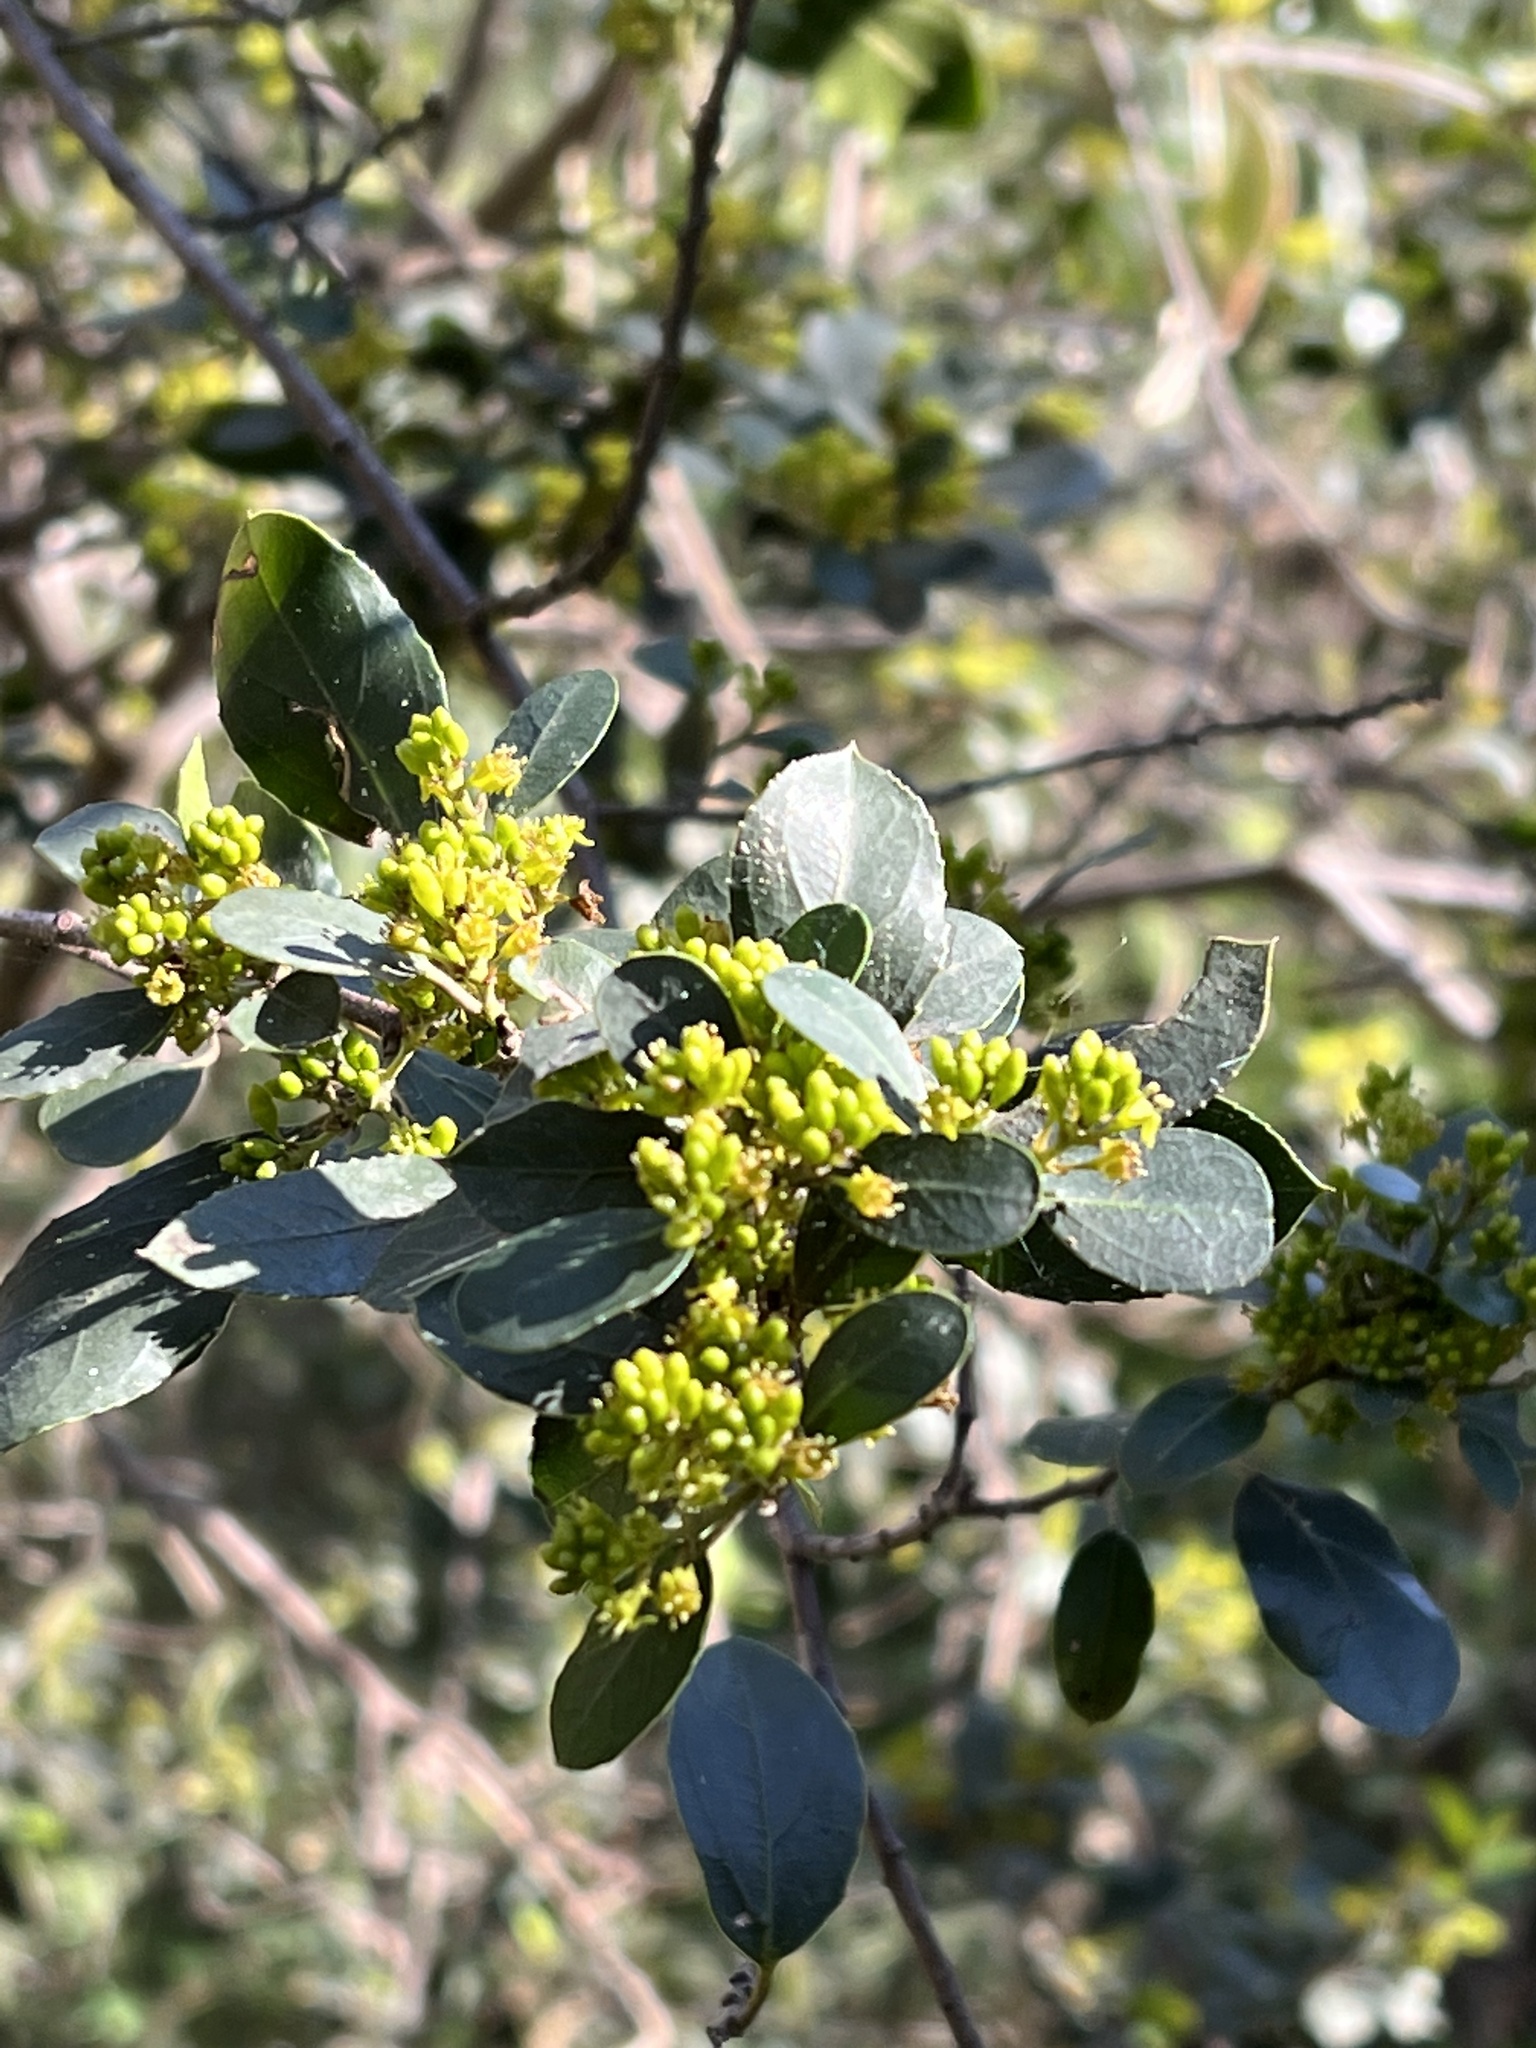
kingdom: Plantae
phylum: Tracheophyta
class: Magnoliopsida
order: Rosales
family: Rhamnaceae
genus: Rhamnus
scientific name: Rhamnus alaternus
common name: Mediterranean buckthorn
